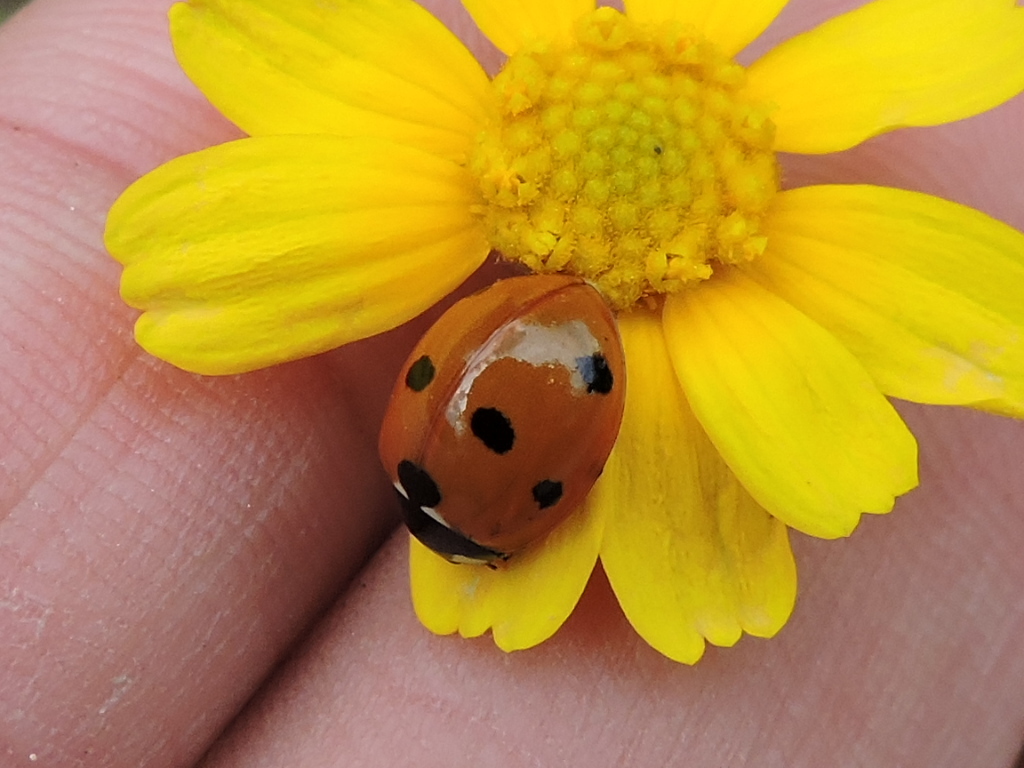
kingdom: Animalia
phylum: Arthropoda
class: Insecta
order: Coleoptera
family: Coccinellidae
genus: Coccinella
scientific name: Coccinella septempunctata
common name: Sevenspotted lady beetle
